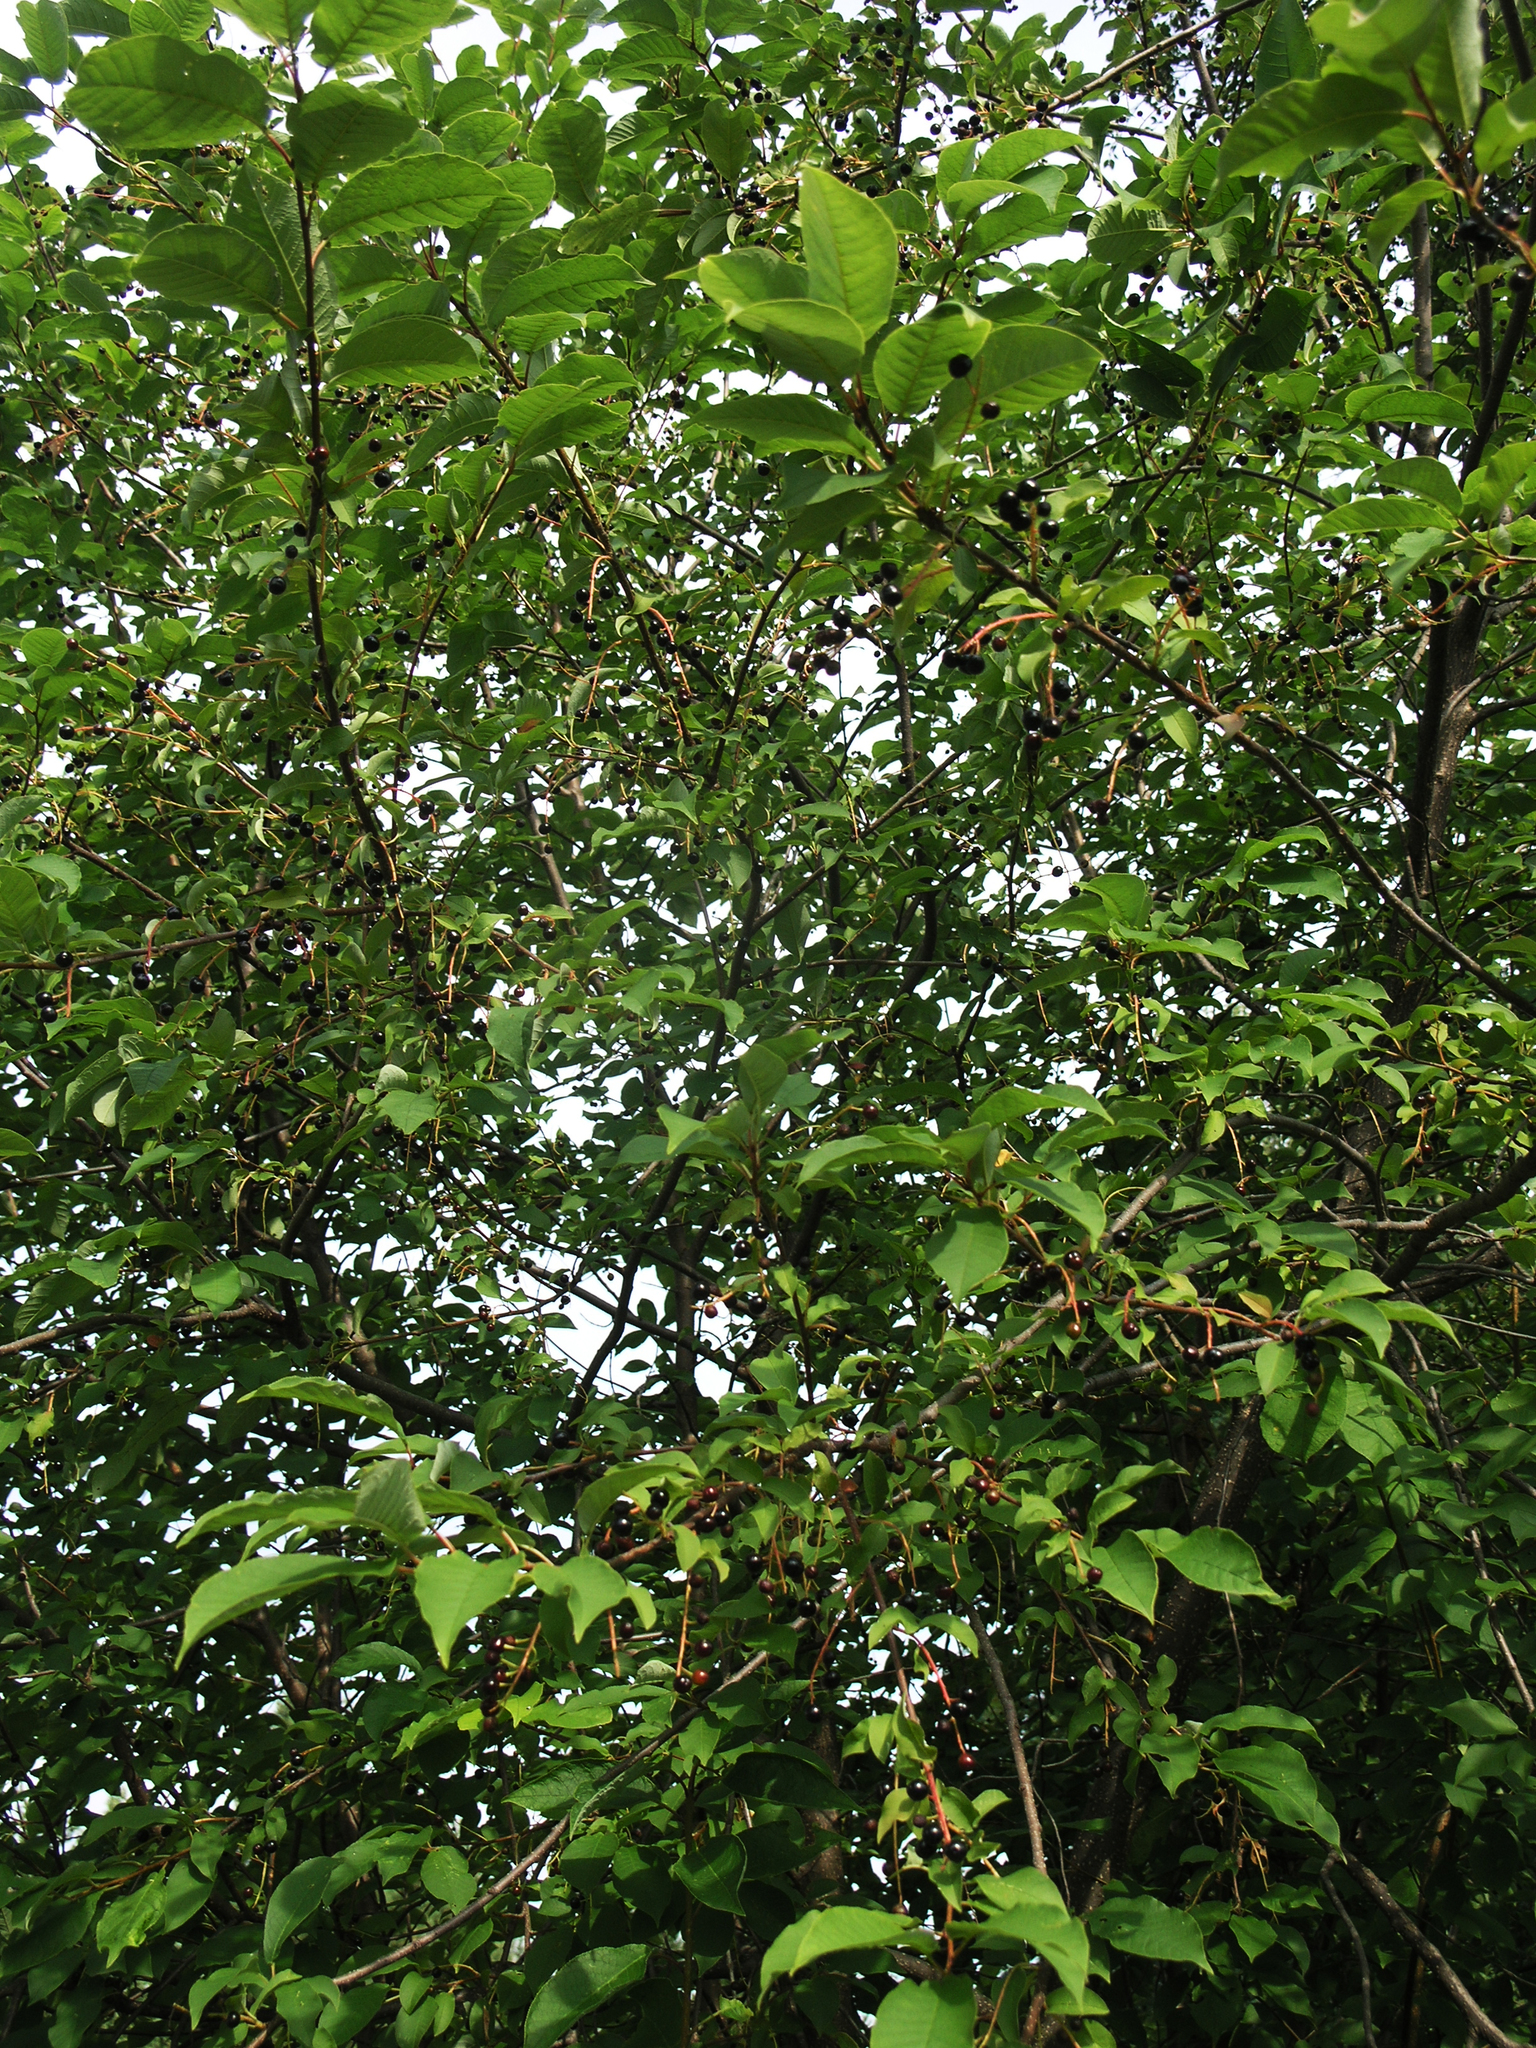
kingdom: Plantae
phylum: Tracheophyta
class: Magnoliopsida
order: Rosales
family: Rosaceae
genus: Prunus
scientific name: Prunus padus
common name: Bird cherry
